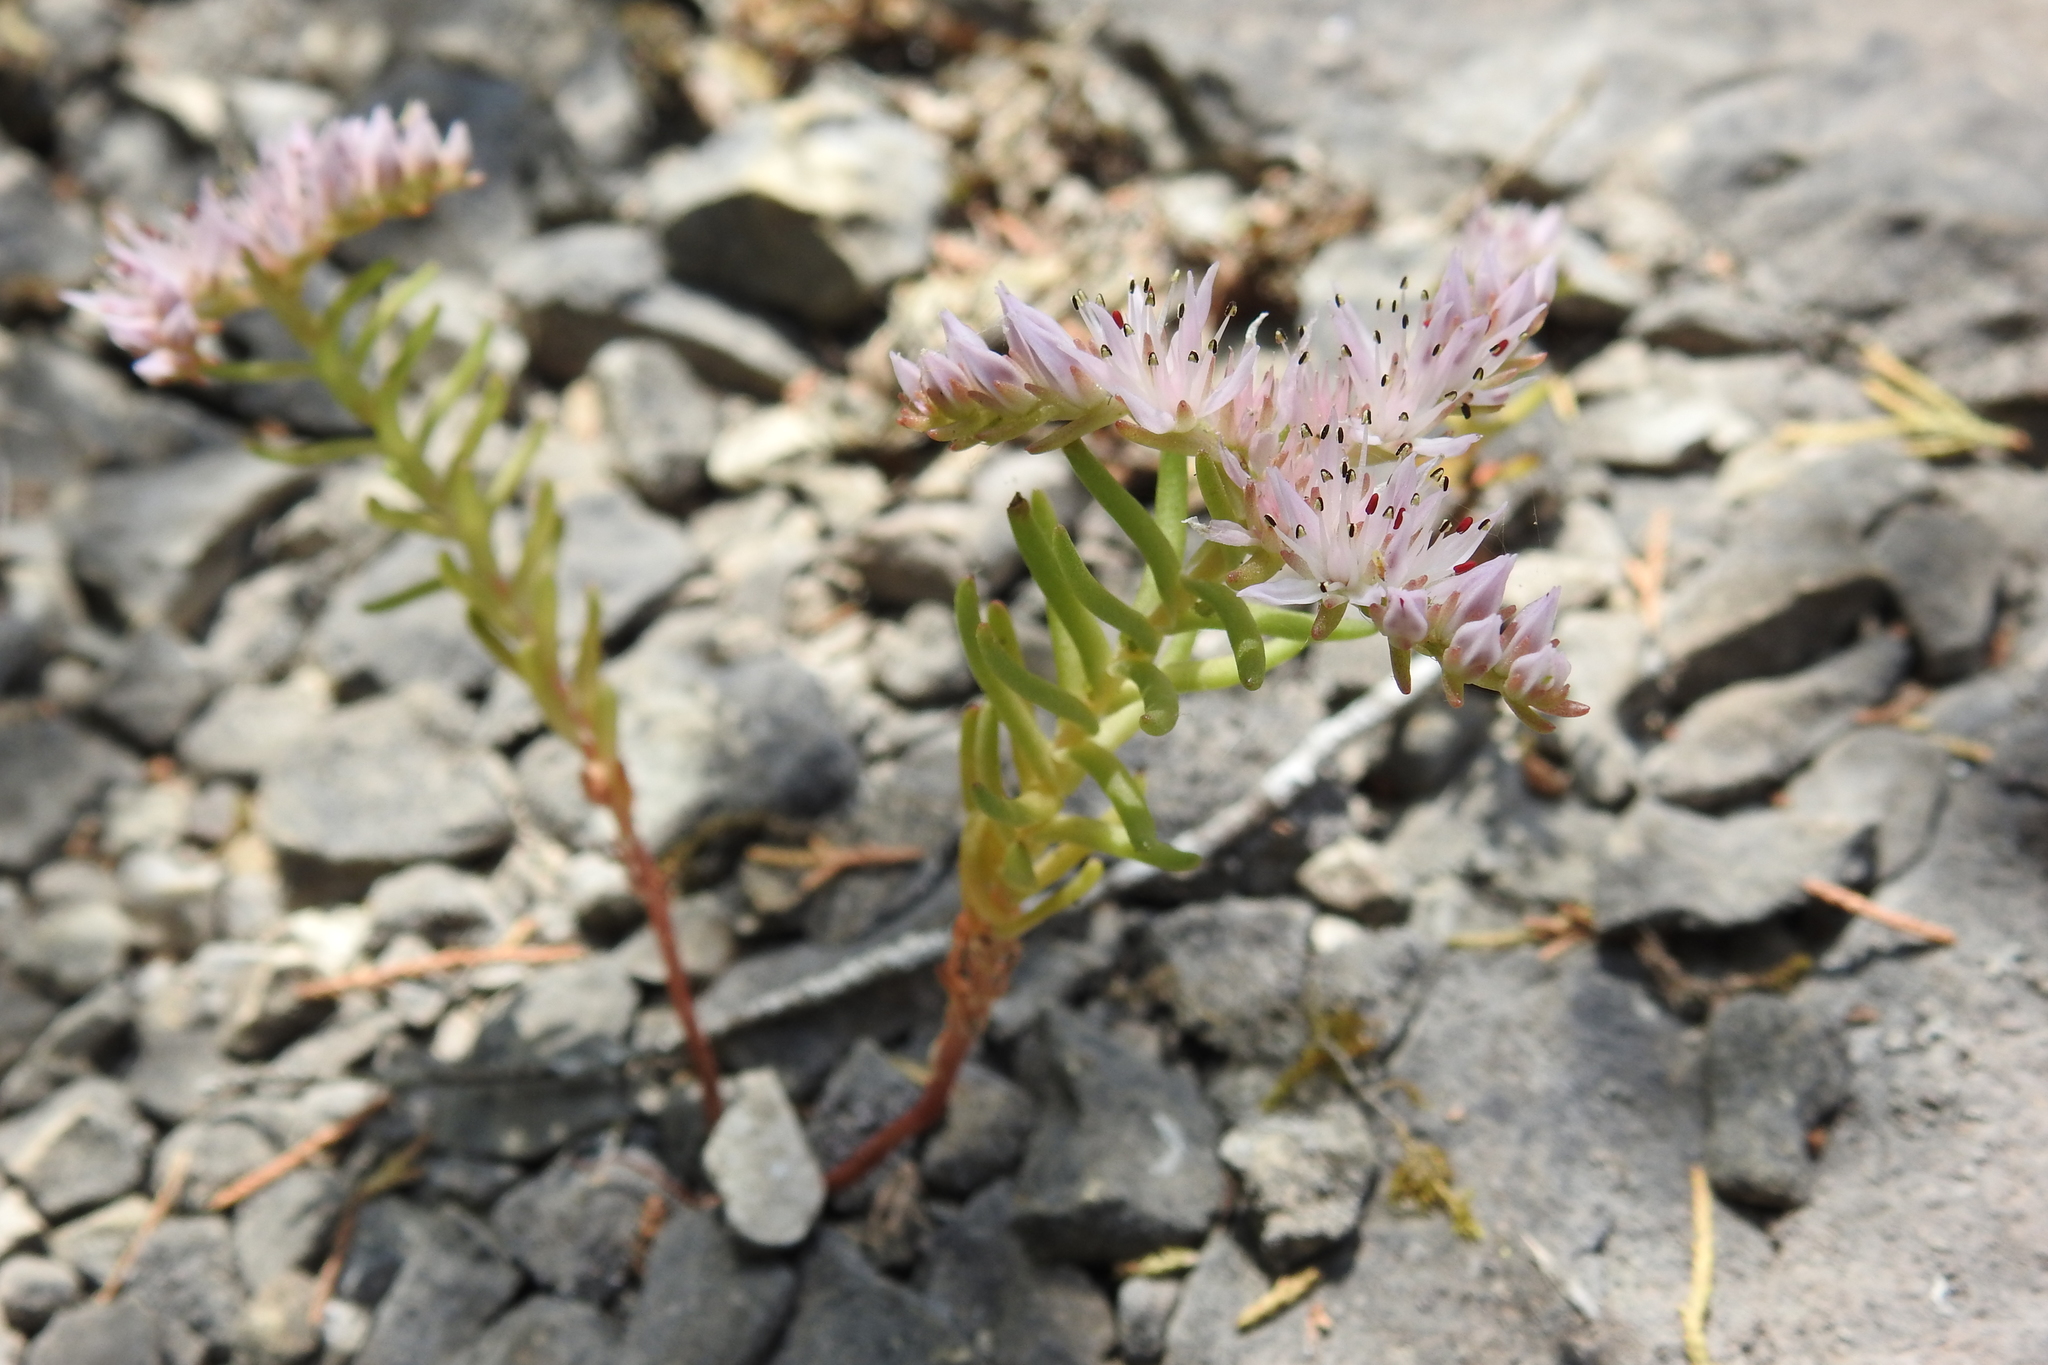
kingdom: Plantae
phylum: Tracheophyta
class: Magnoliopsida
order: Saxifragales
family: Crassulaceae
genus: Sedum
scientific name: Sedum pulchellum
